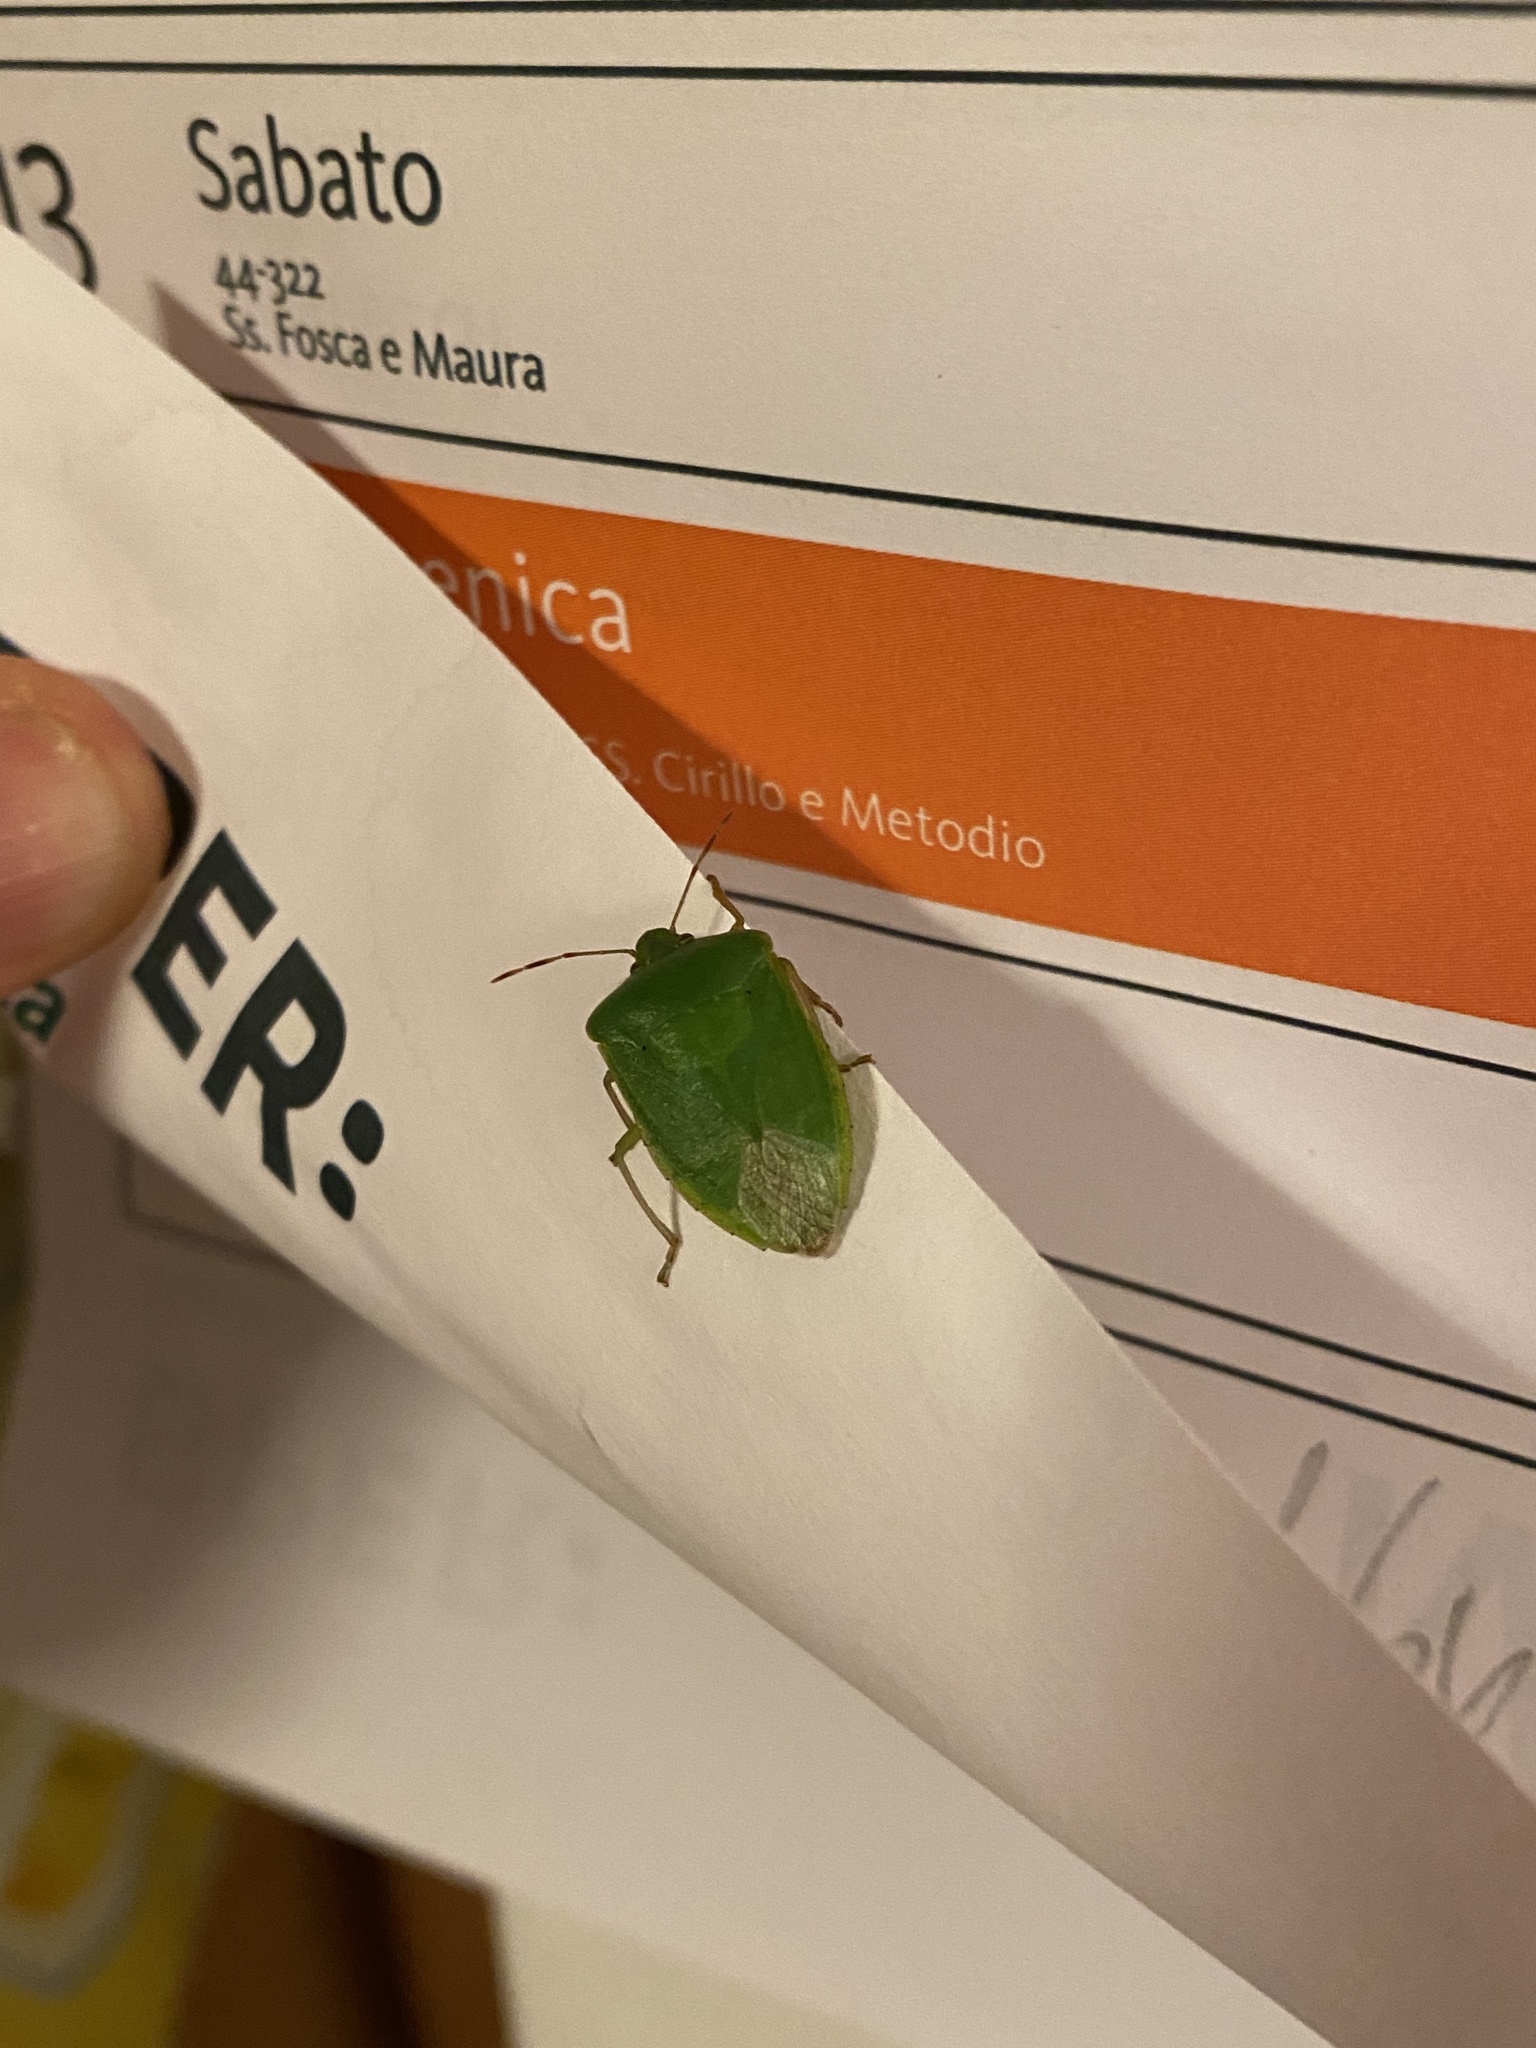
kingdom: Animalia
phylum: Arthropoda
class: Insecta
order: Hemiptera
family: Pentatomidae
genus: Nezara
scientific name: Nezara viridula
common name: Southern green stink bug
